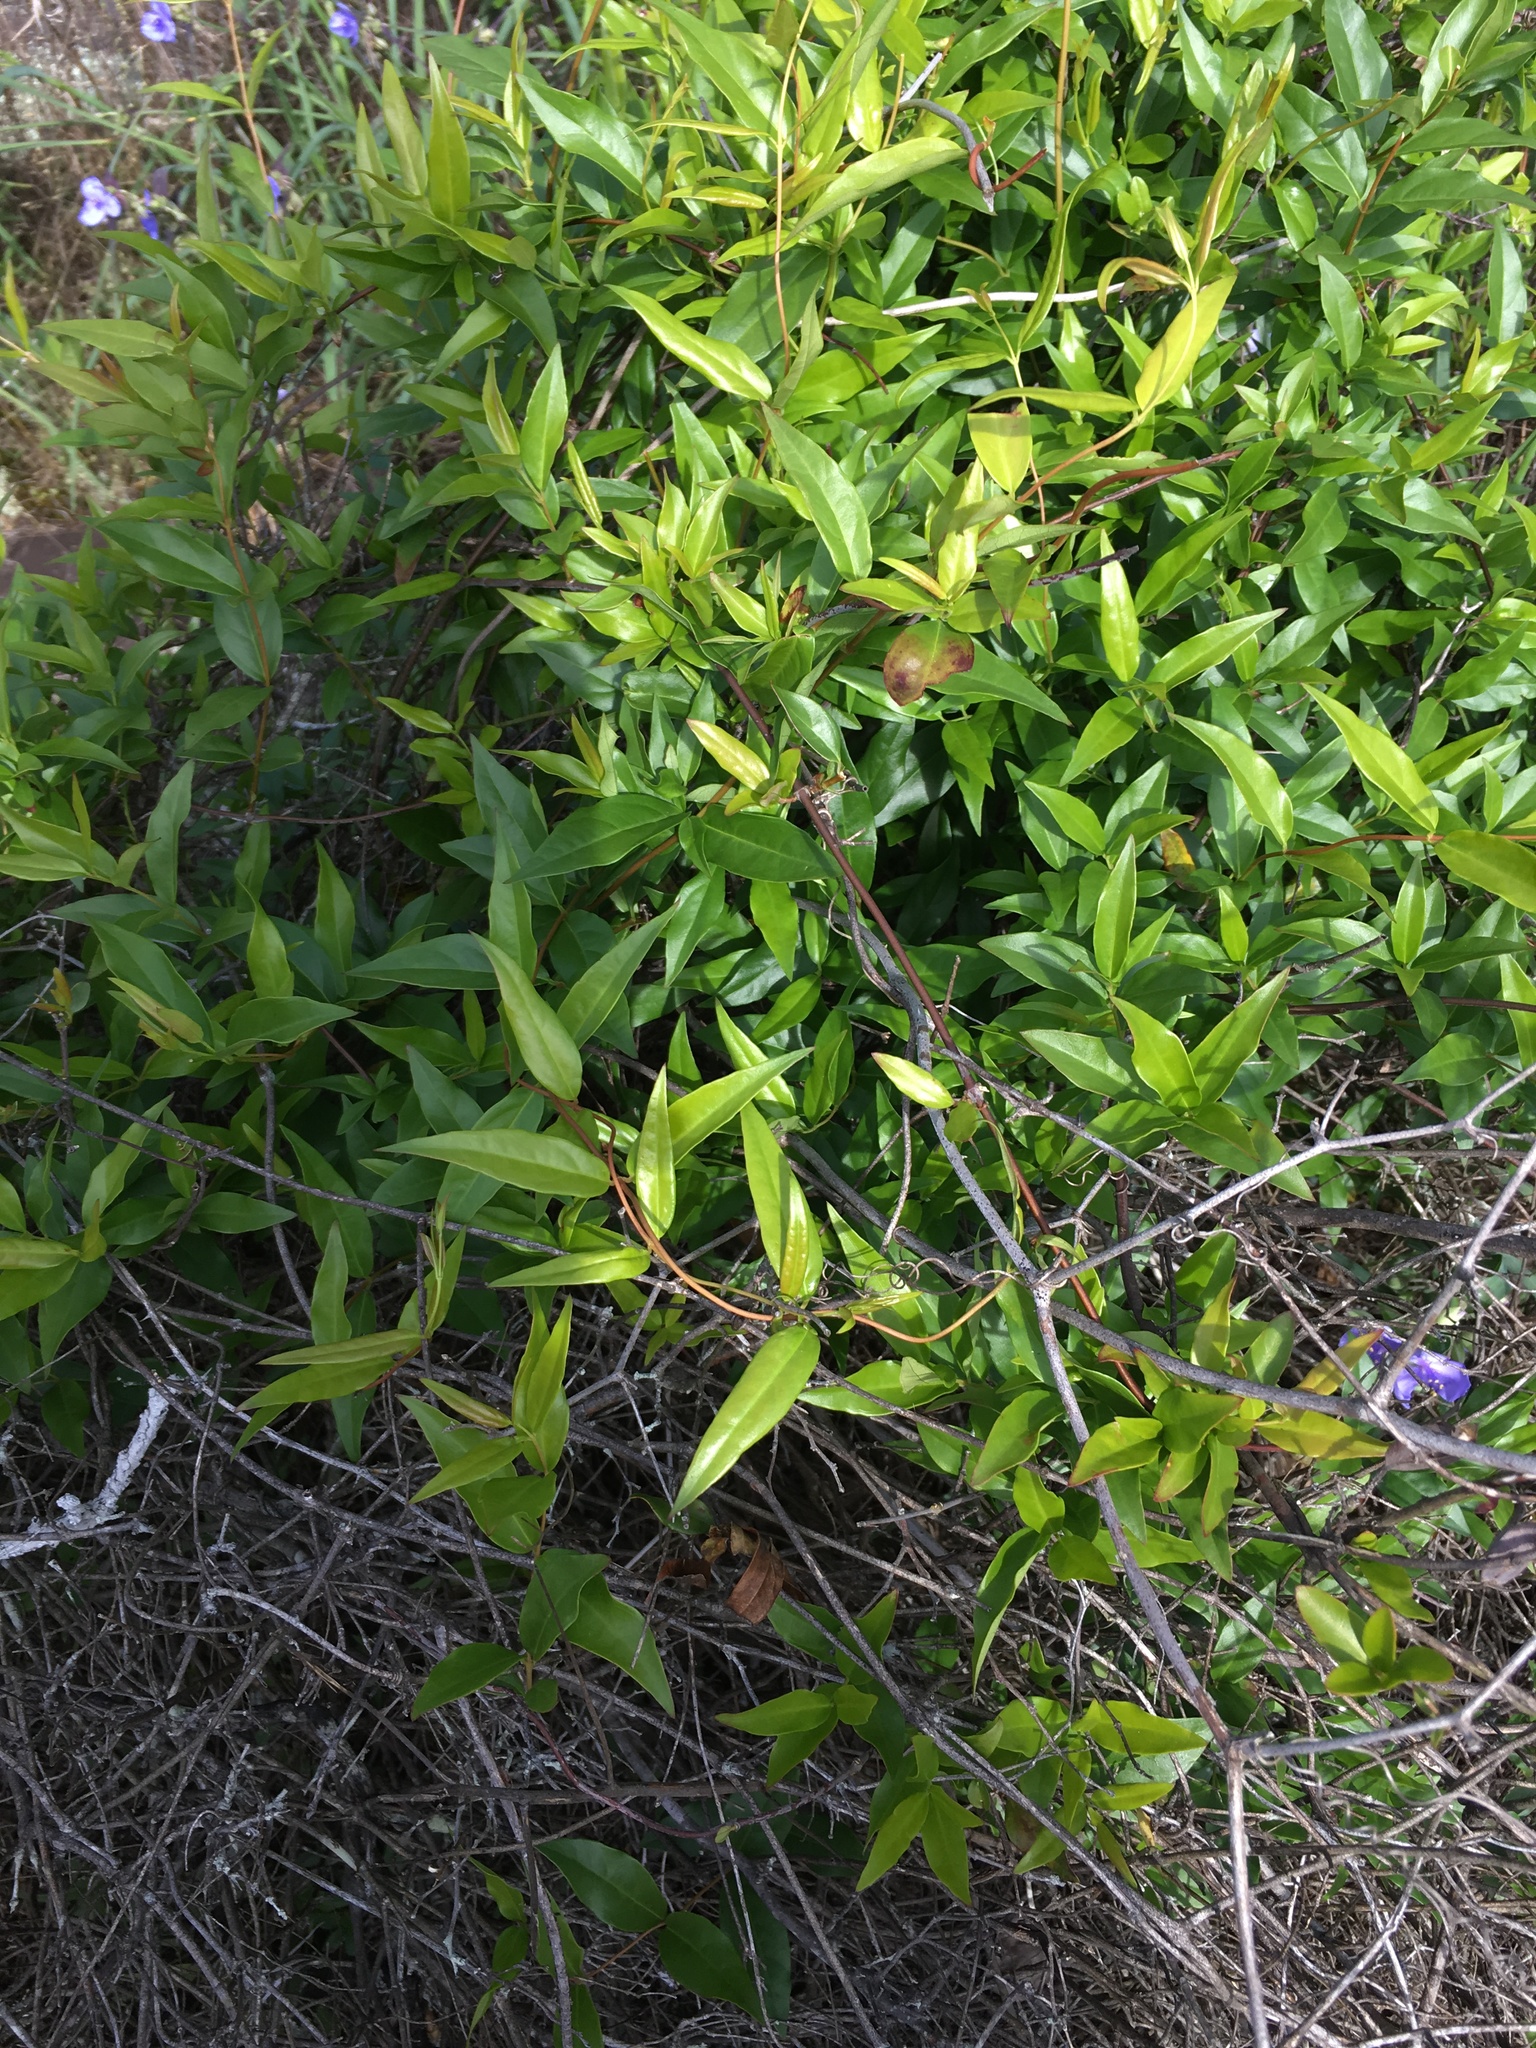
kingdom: Plantae
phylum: Tracheophyta
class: Magnoliopsida
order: Gentianales
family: Gelsemiaceae
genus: Gelsemium
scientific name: Gelsemium sempervirens
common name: Carolina-jasmine
